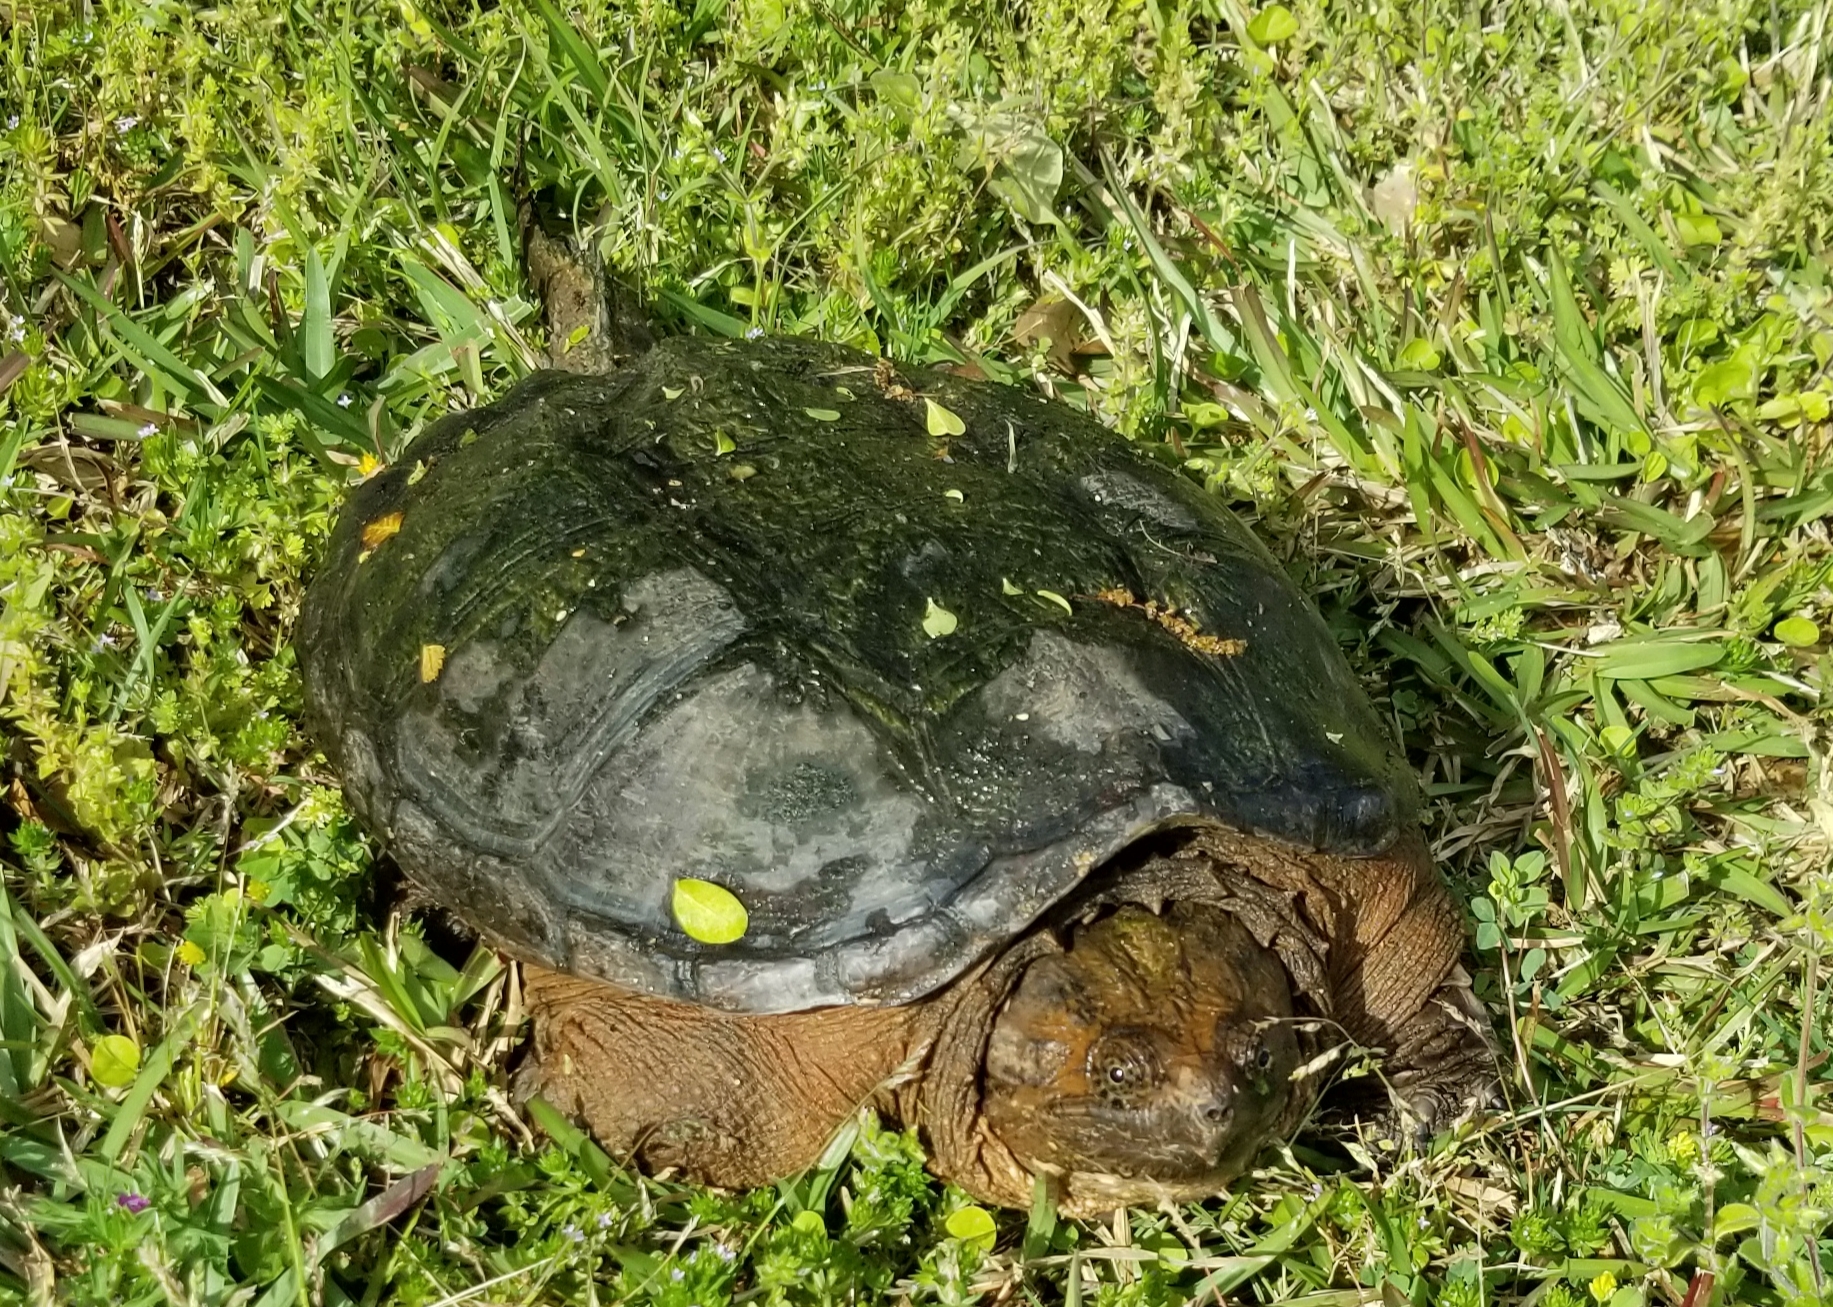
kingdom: Animalia
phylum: Chordata
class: Testudines
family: Chelydridae
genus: Chelydra
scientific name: Chelydra serpentina
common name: Common snapping turtle
